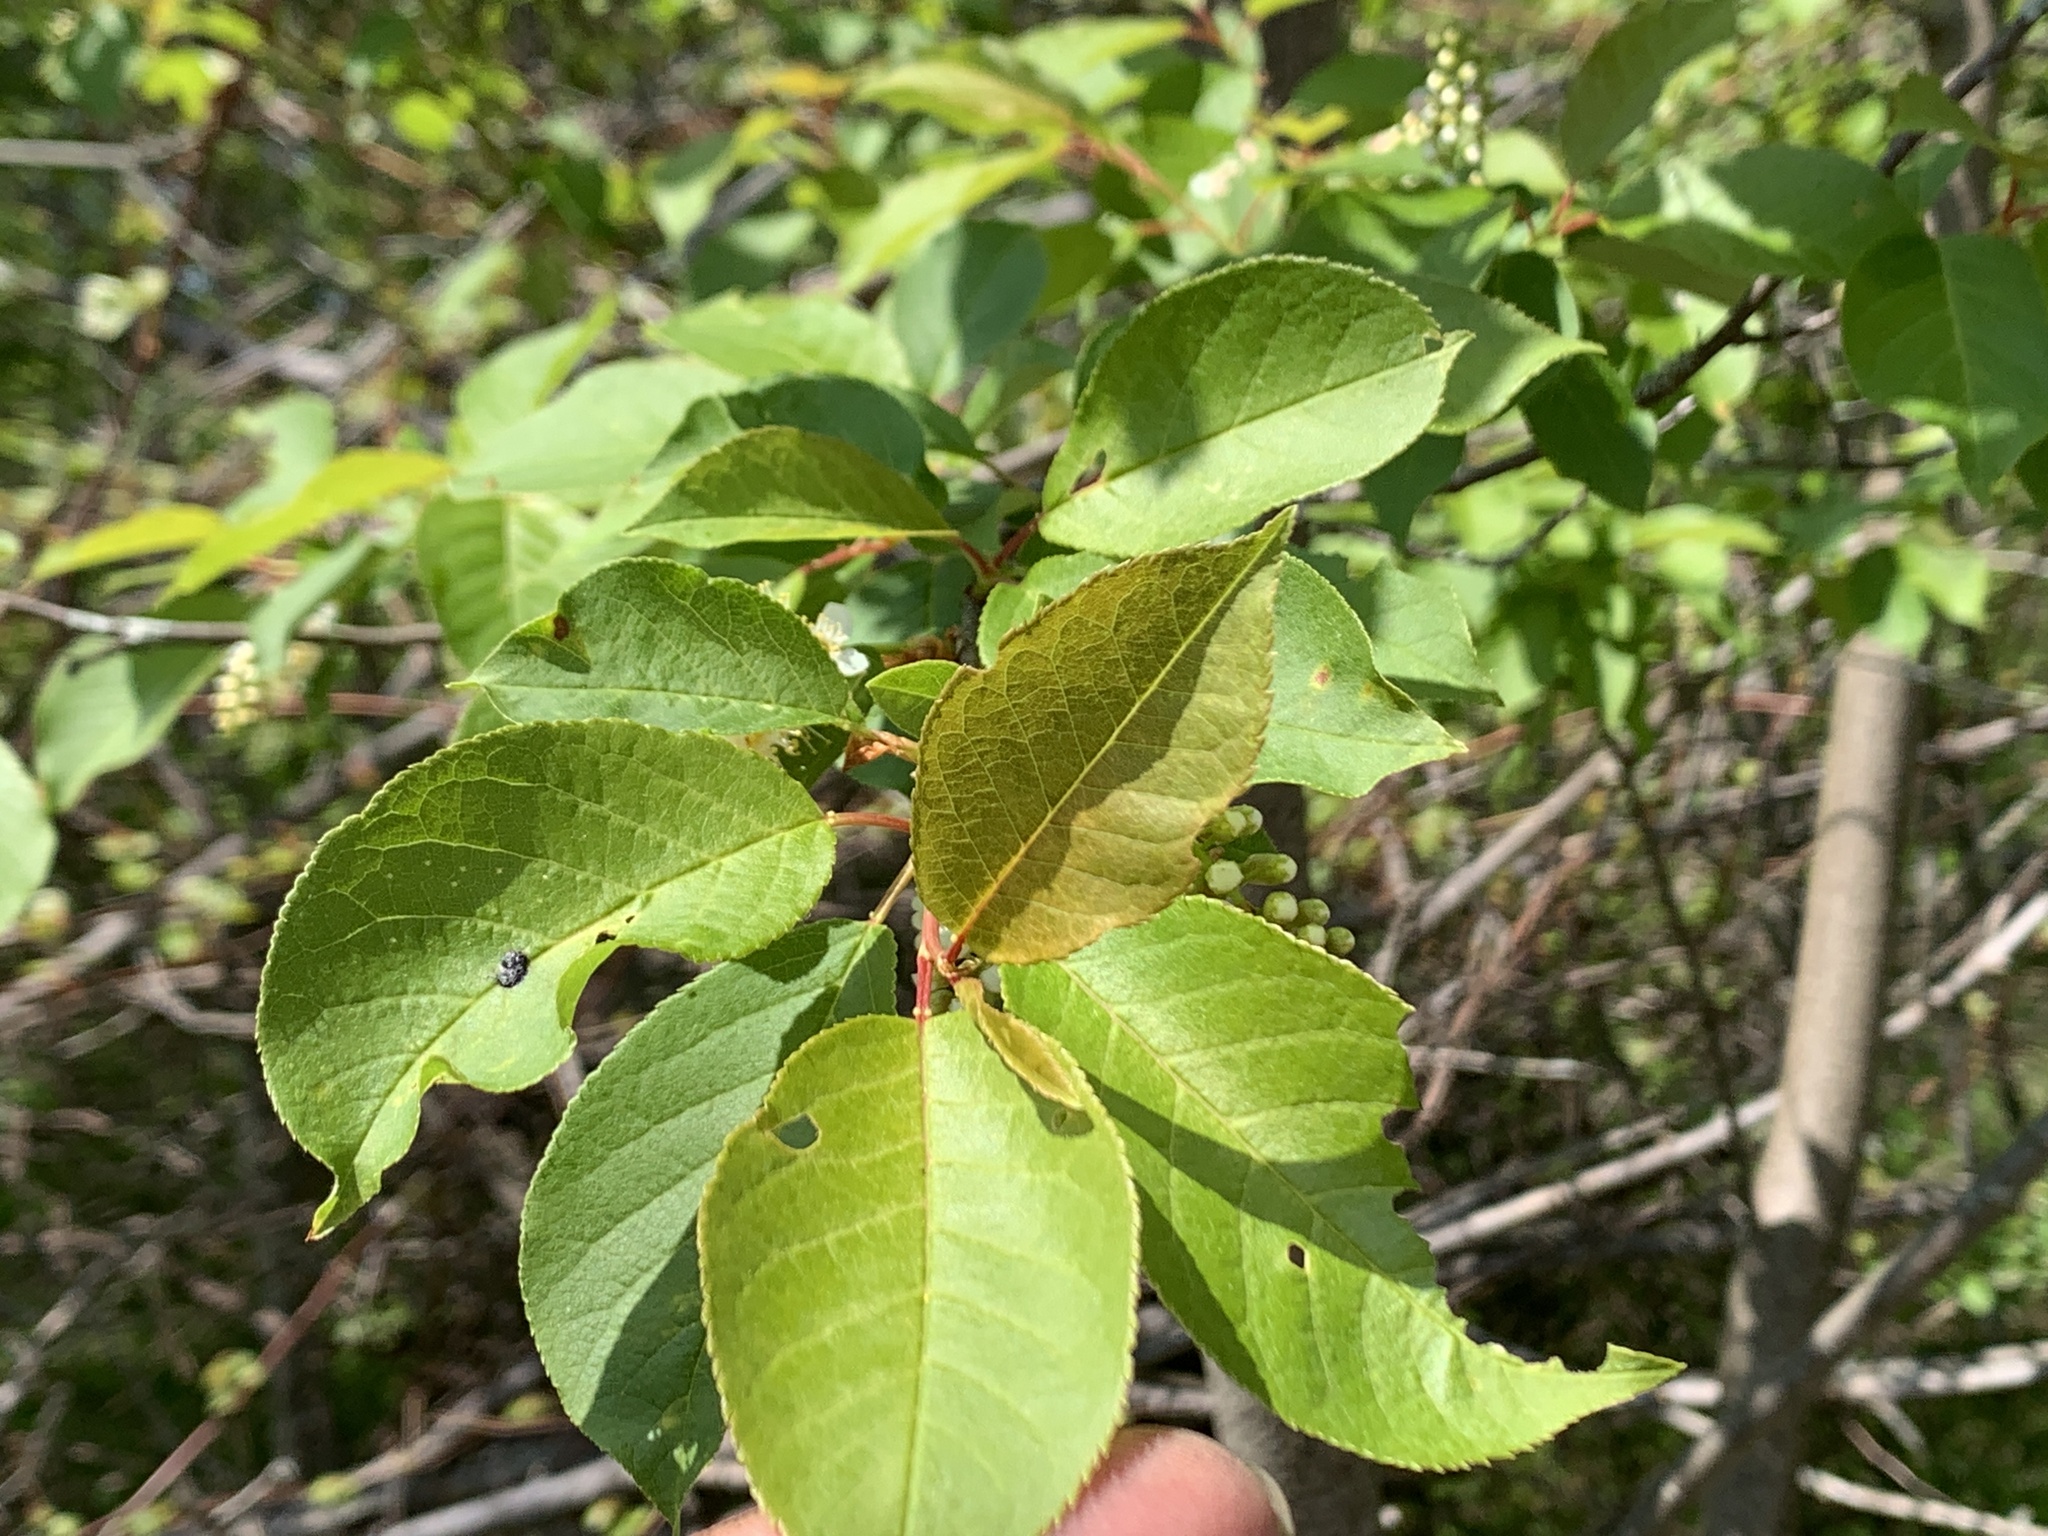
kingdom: Plantae
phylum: Tracheophyta
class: Magnoliopsida
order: Rosales
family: Rosaceae
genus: Prunus
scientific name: Prunus virginiana
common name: Chokecherry
